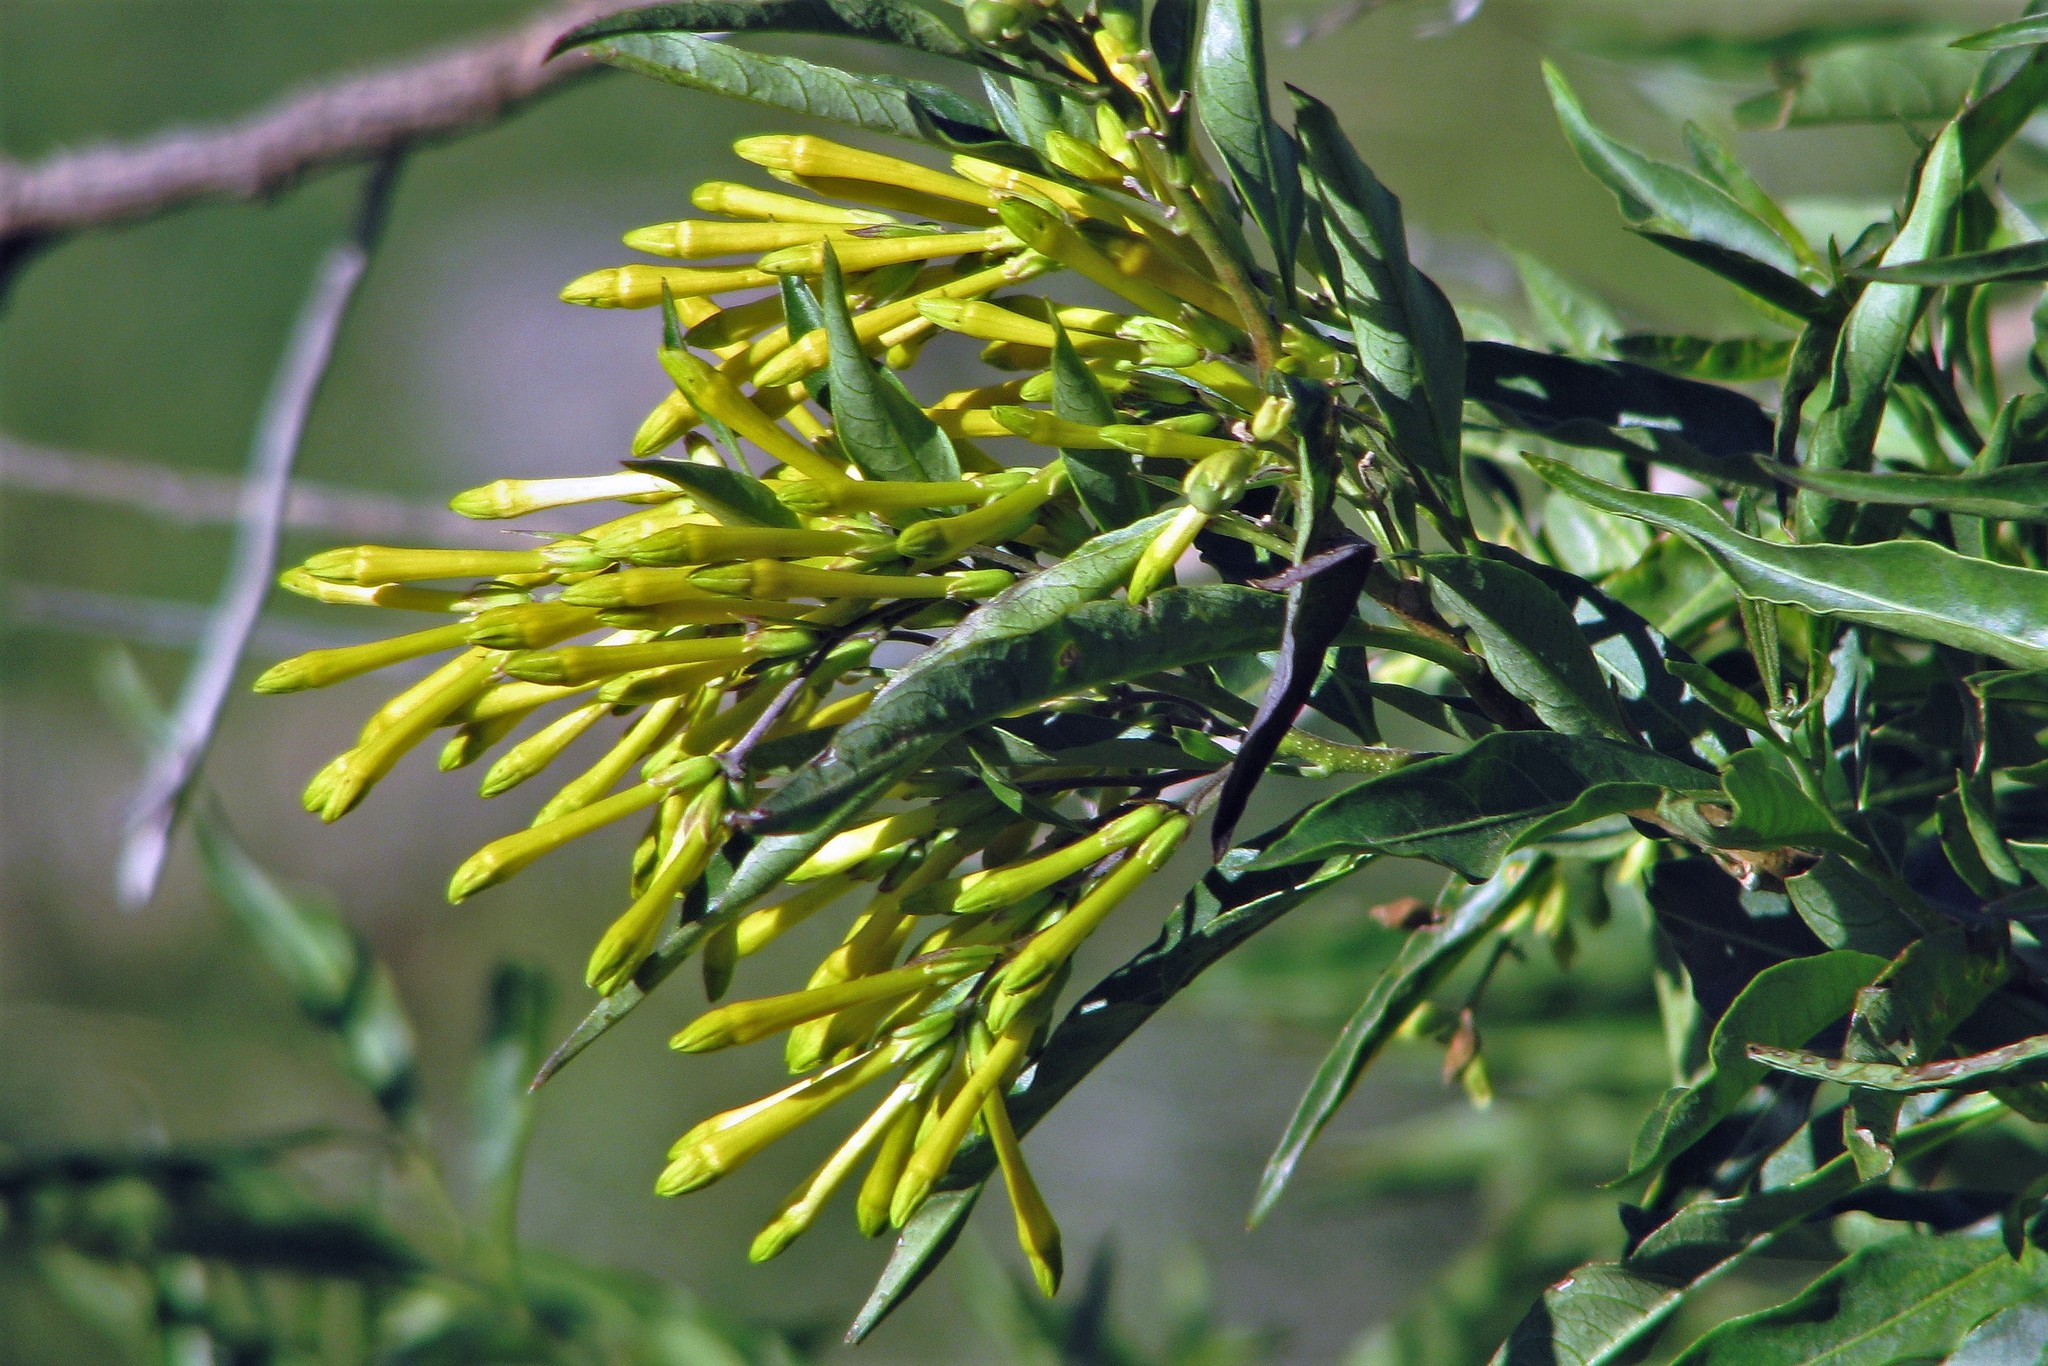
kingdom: Plantae
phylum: Tracheophyta
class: Magnoliopsida
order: Solanales
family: Solanaceae
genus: Cestrum
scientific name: Cestrum parqui
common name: Chilean cestrum
